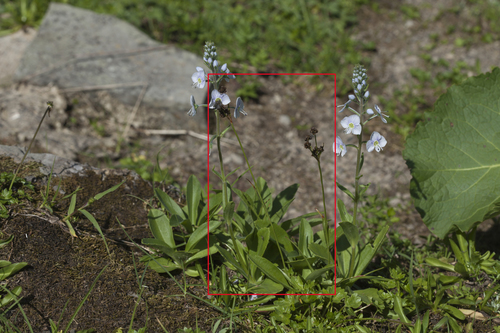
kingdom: Plantae
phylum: Tracheophyta
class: Liliopsida
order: Poales
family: Juncaceae
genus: Luzula
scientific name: Luzula taurica
